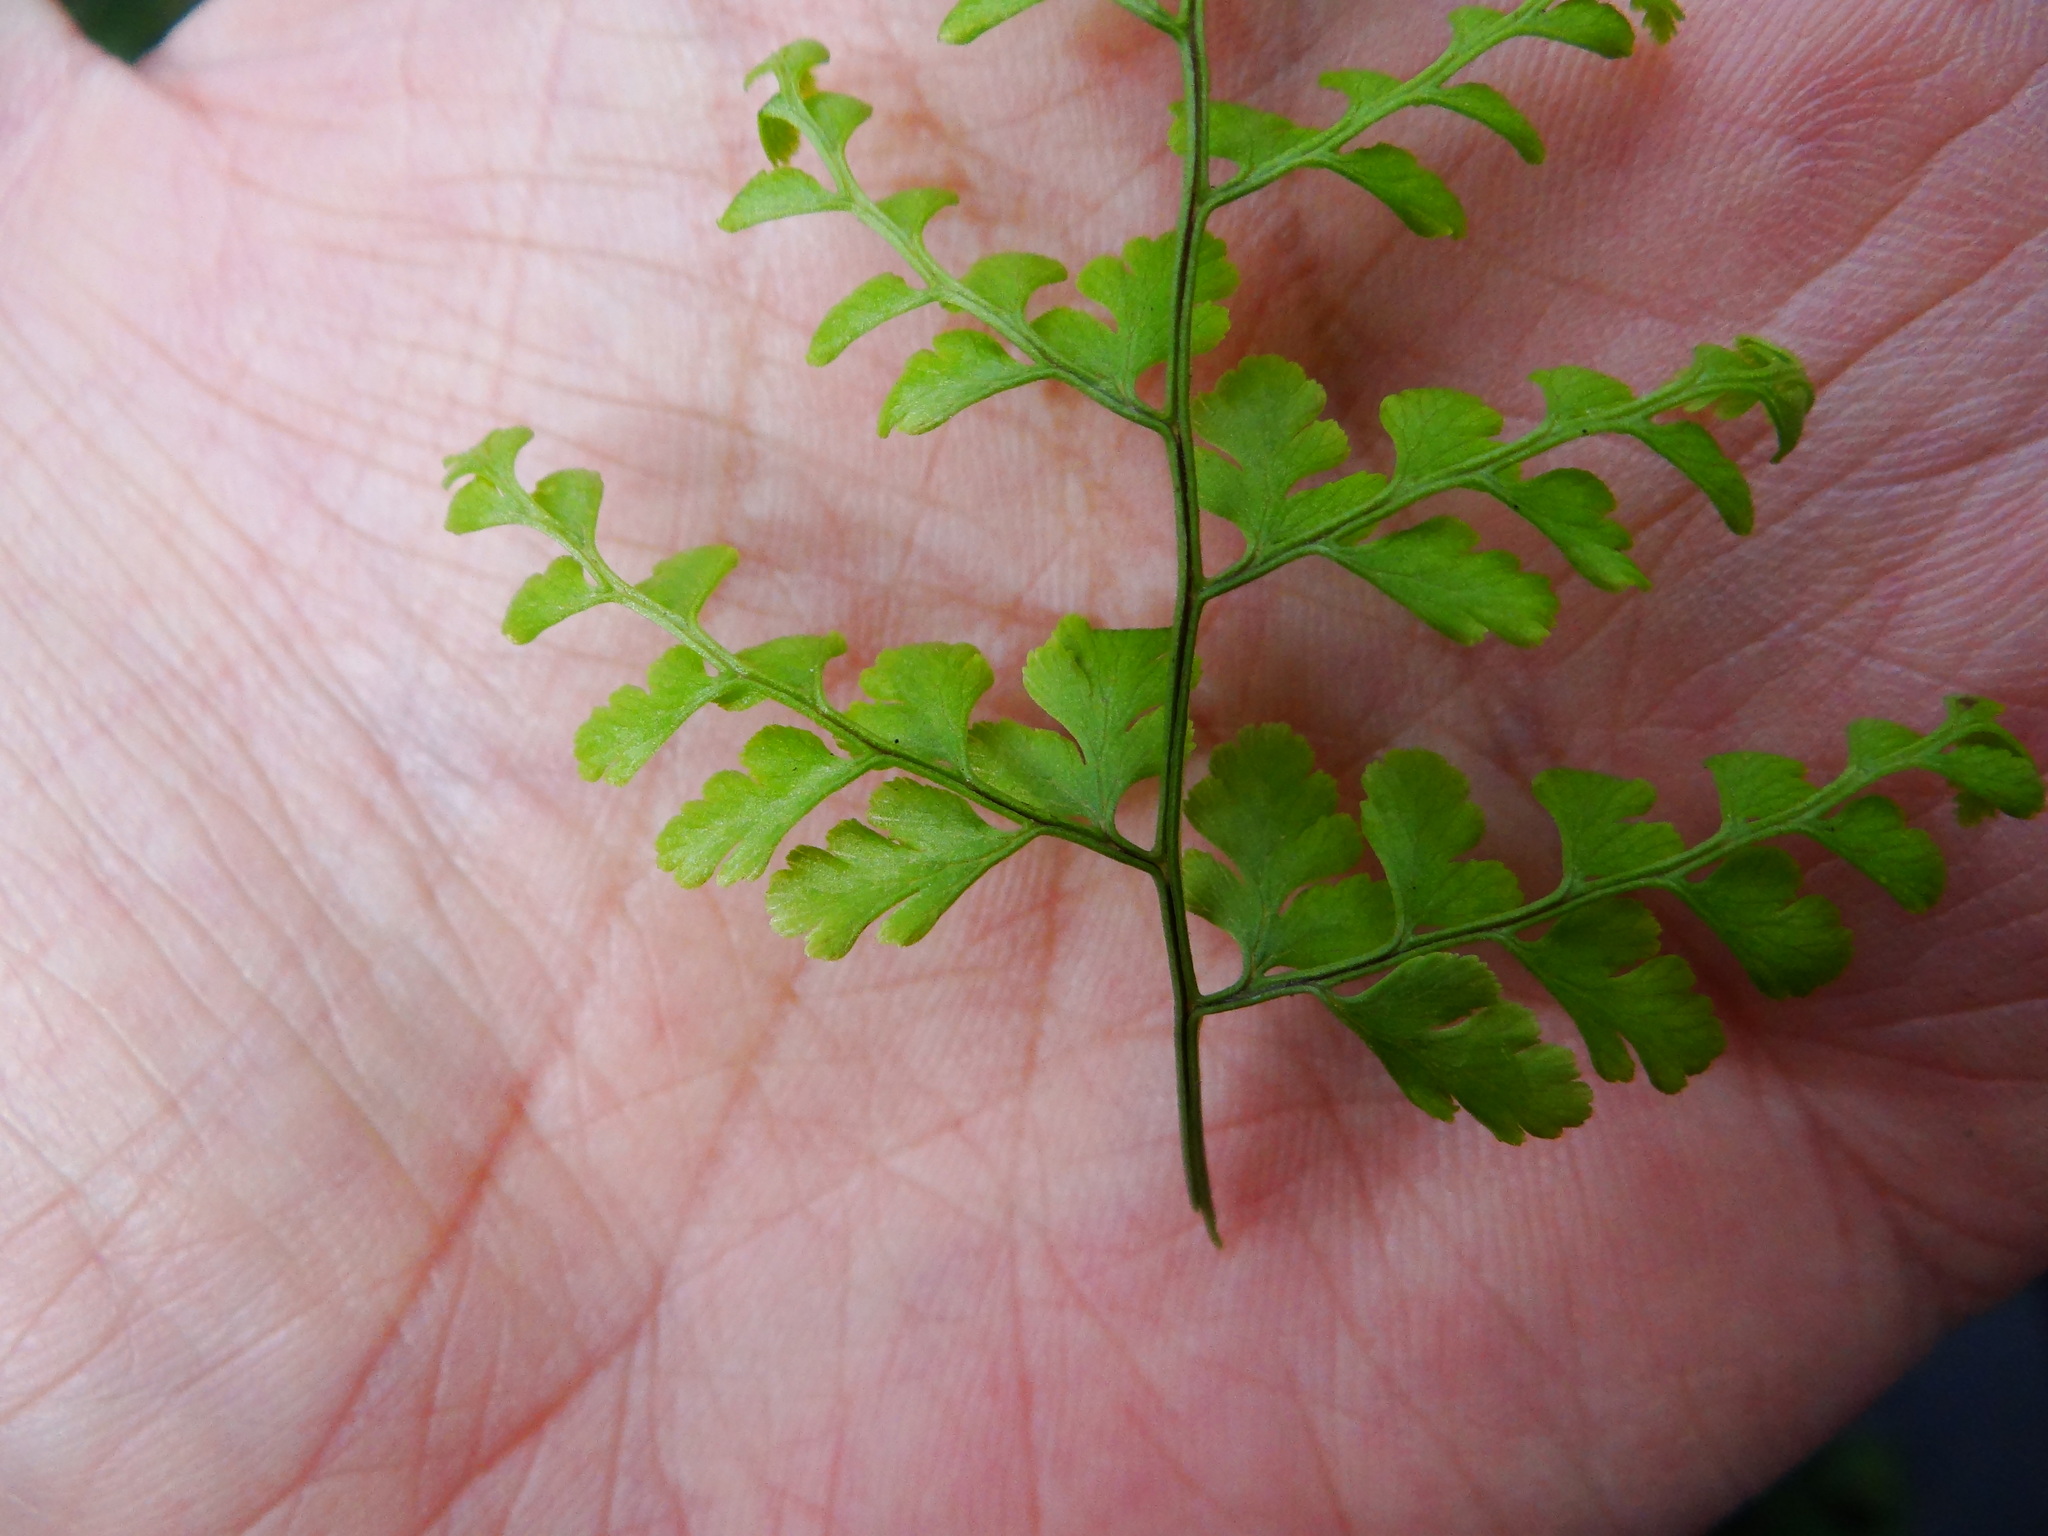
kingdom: Plantae
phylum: Tracheophyta
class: Polypodiopsida
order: Polypodiales
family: Cystopteridaceae
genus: Cystopteris
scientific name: Cystopteris moupinensis
